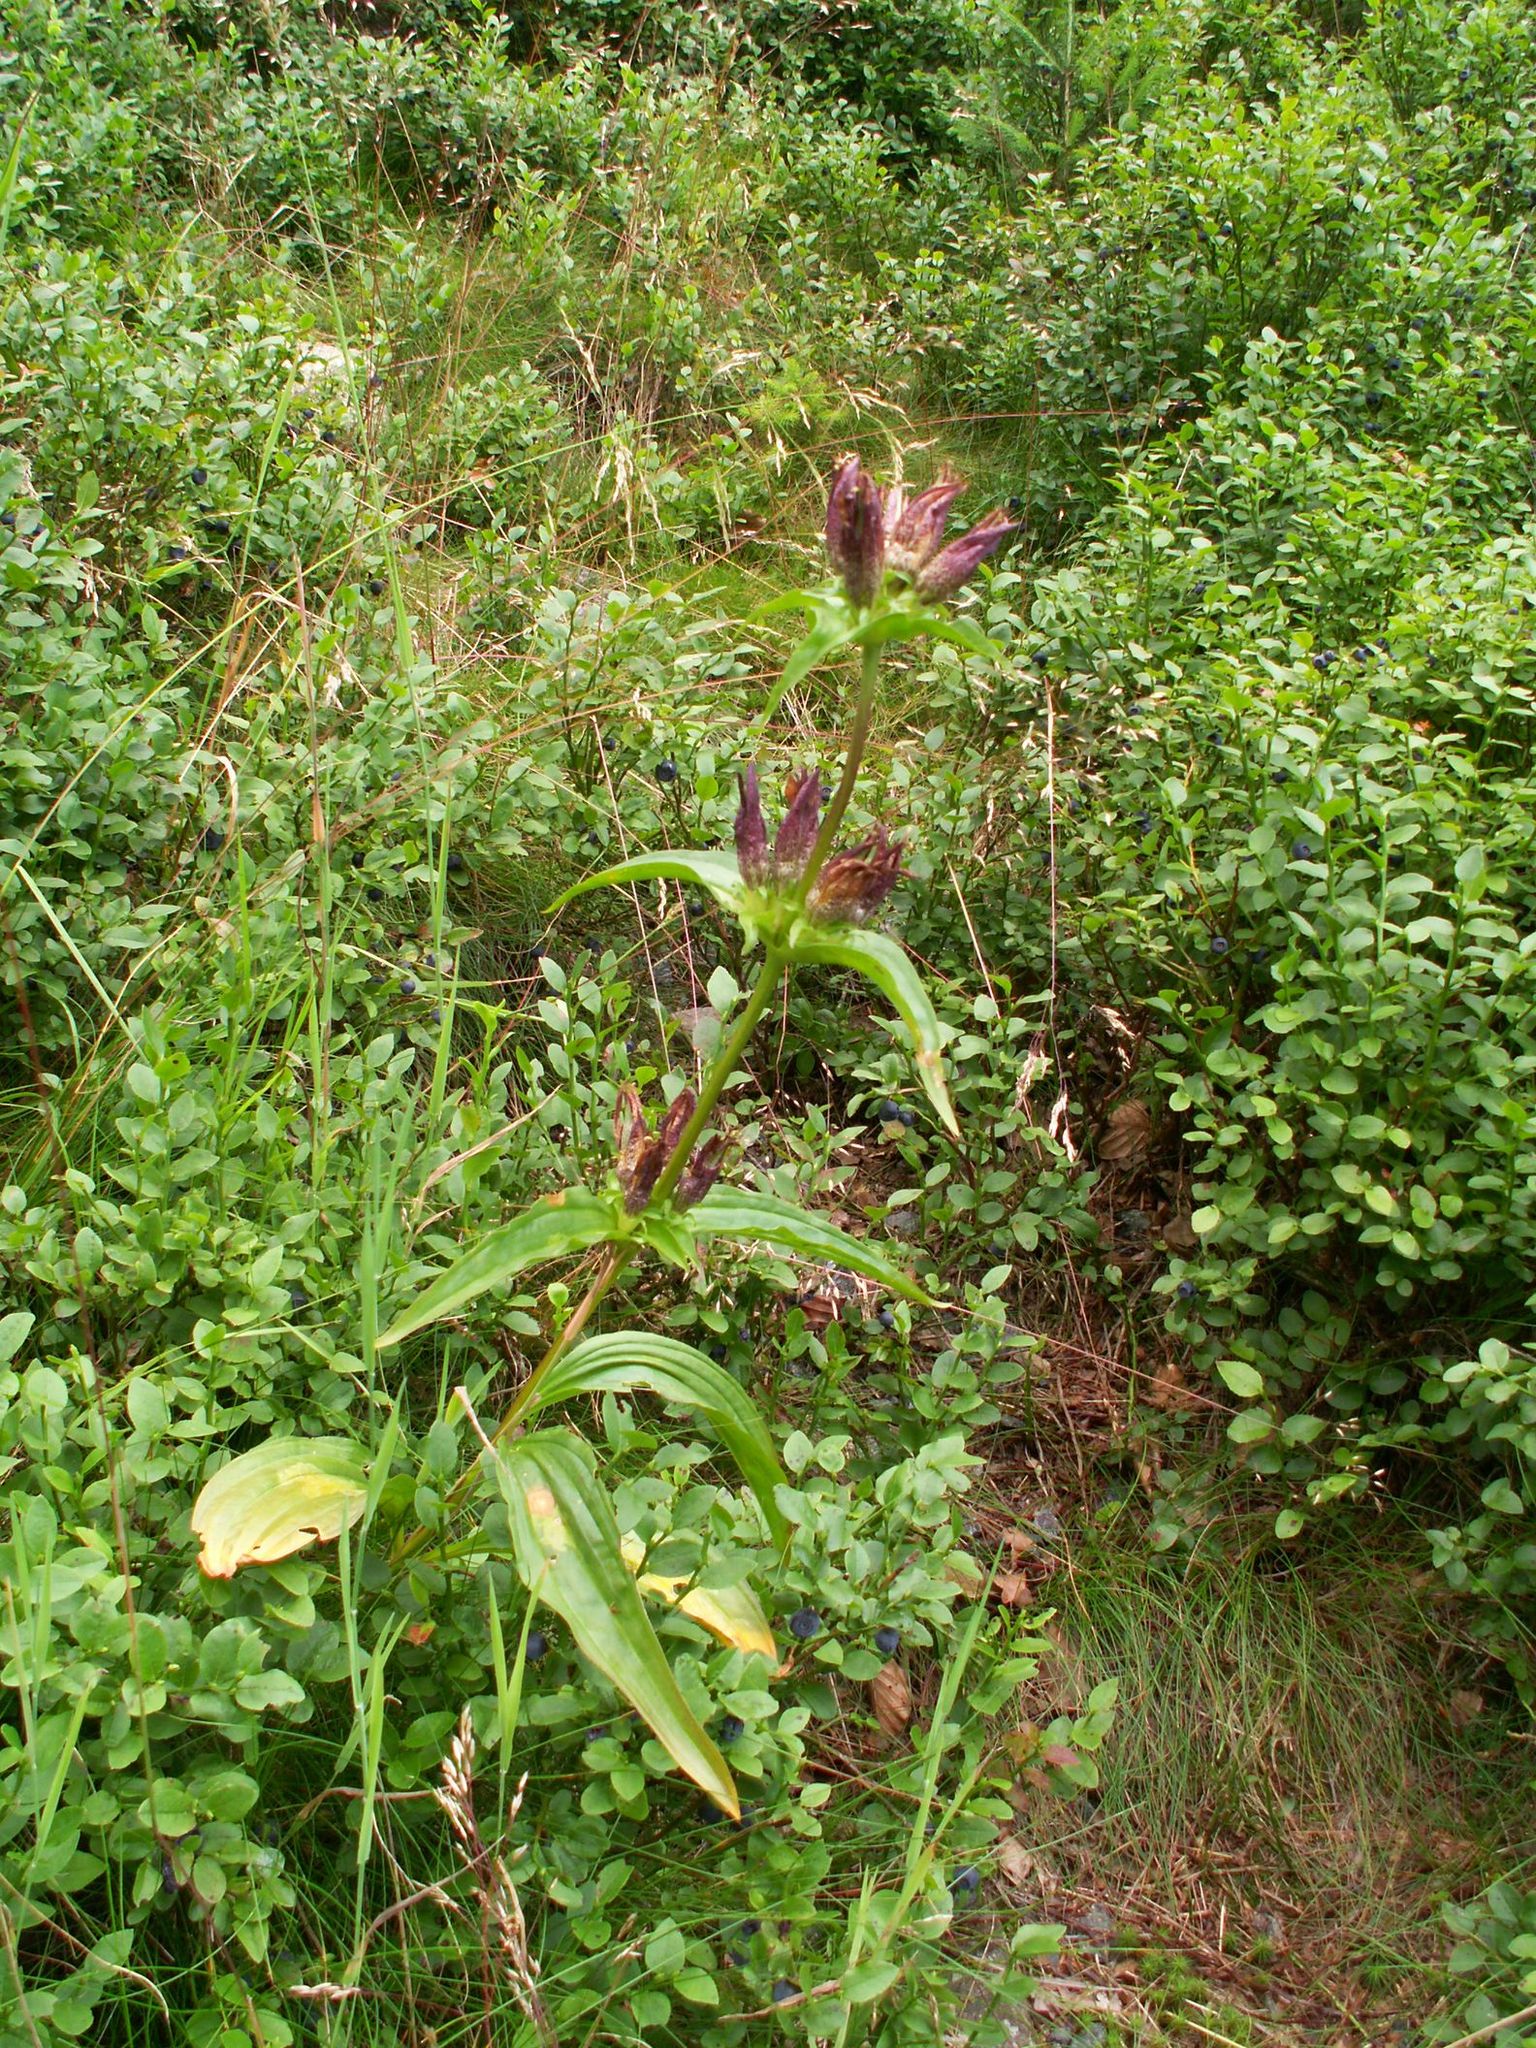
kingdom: Plantae
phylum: Tracheophyta
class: Magnoliopsida
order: Gentianales
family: Gentianaceae
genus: Gentiana
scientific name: Gentiana pannonica
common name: Hungarian gentian
